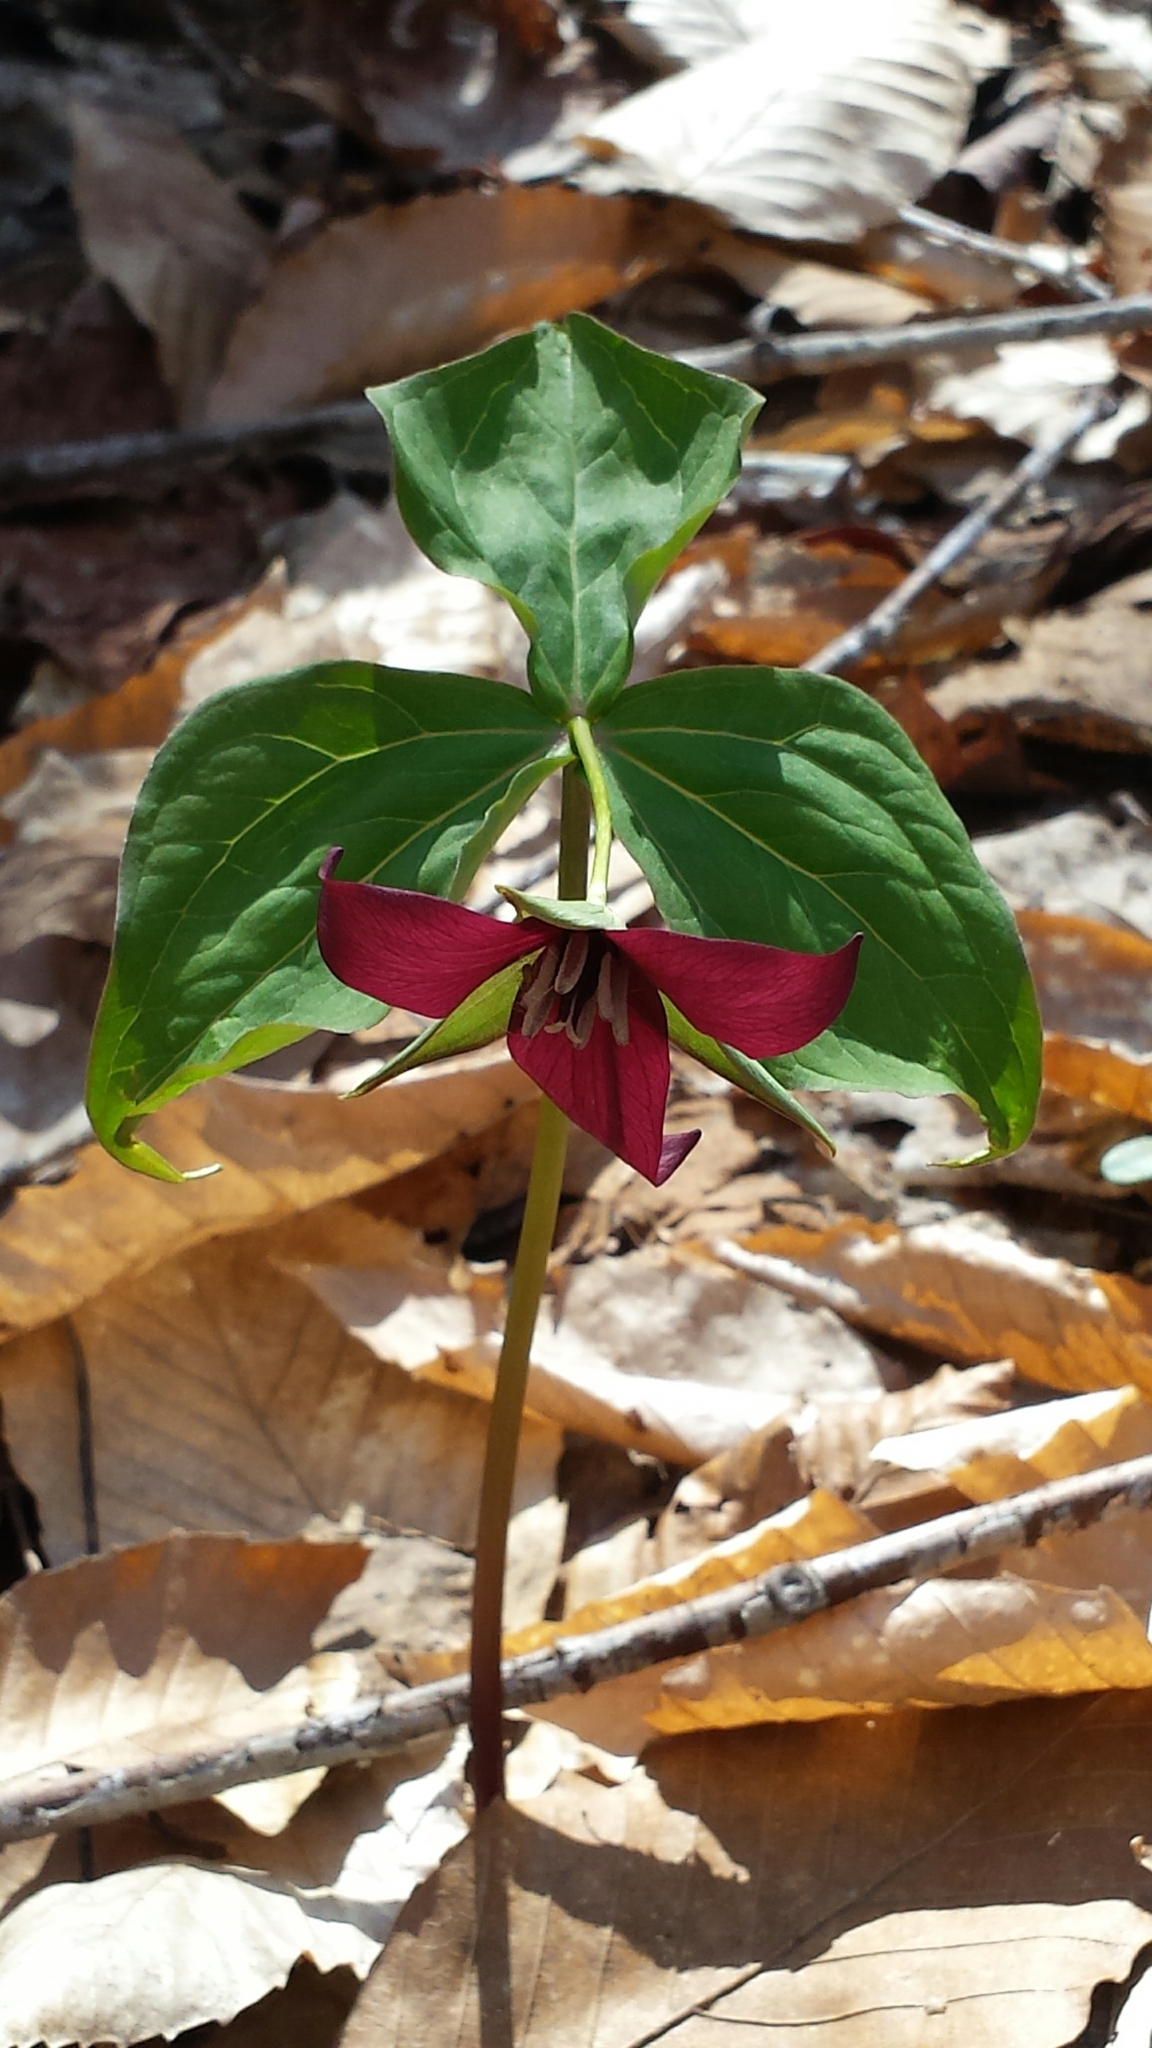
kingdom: Plantae
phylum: Tracheophyta
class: Liliopsida
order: Liliales
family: Melanthiaceae
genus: Trillium
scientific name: Trillium erectum
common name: Purple trillium
